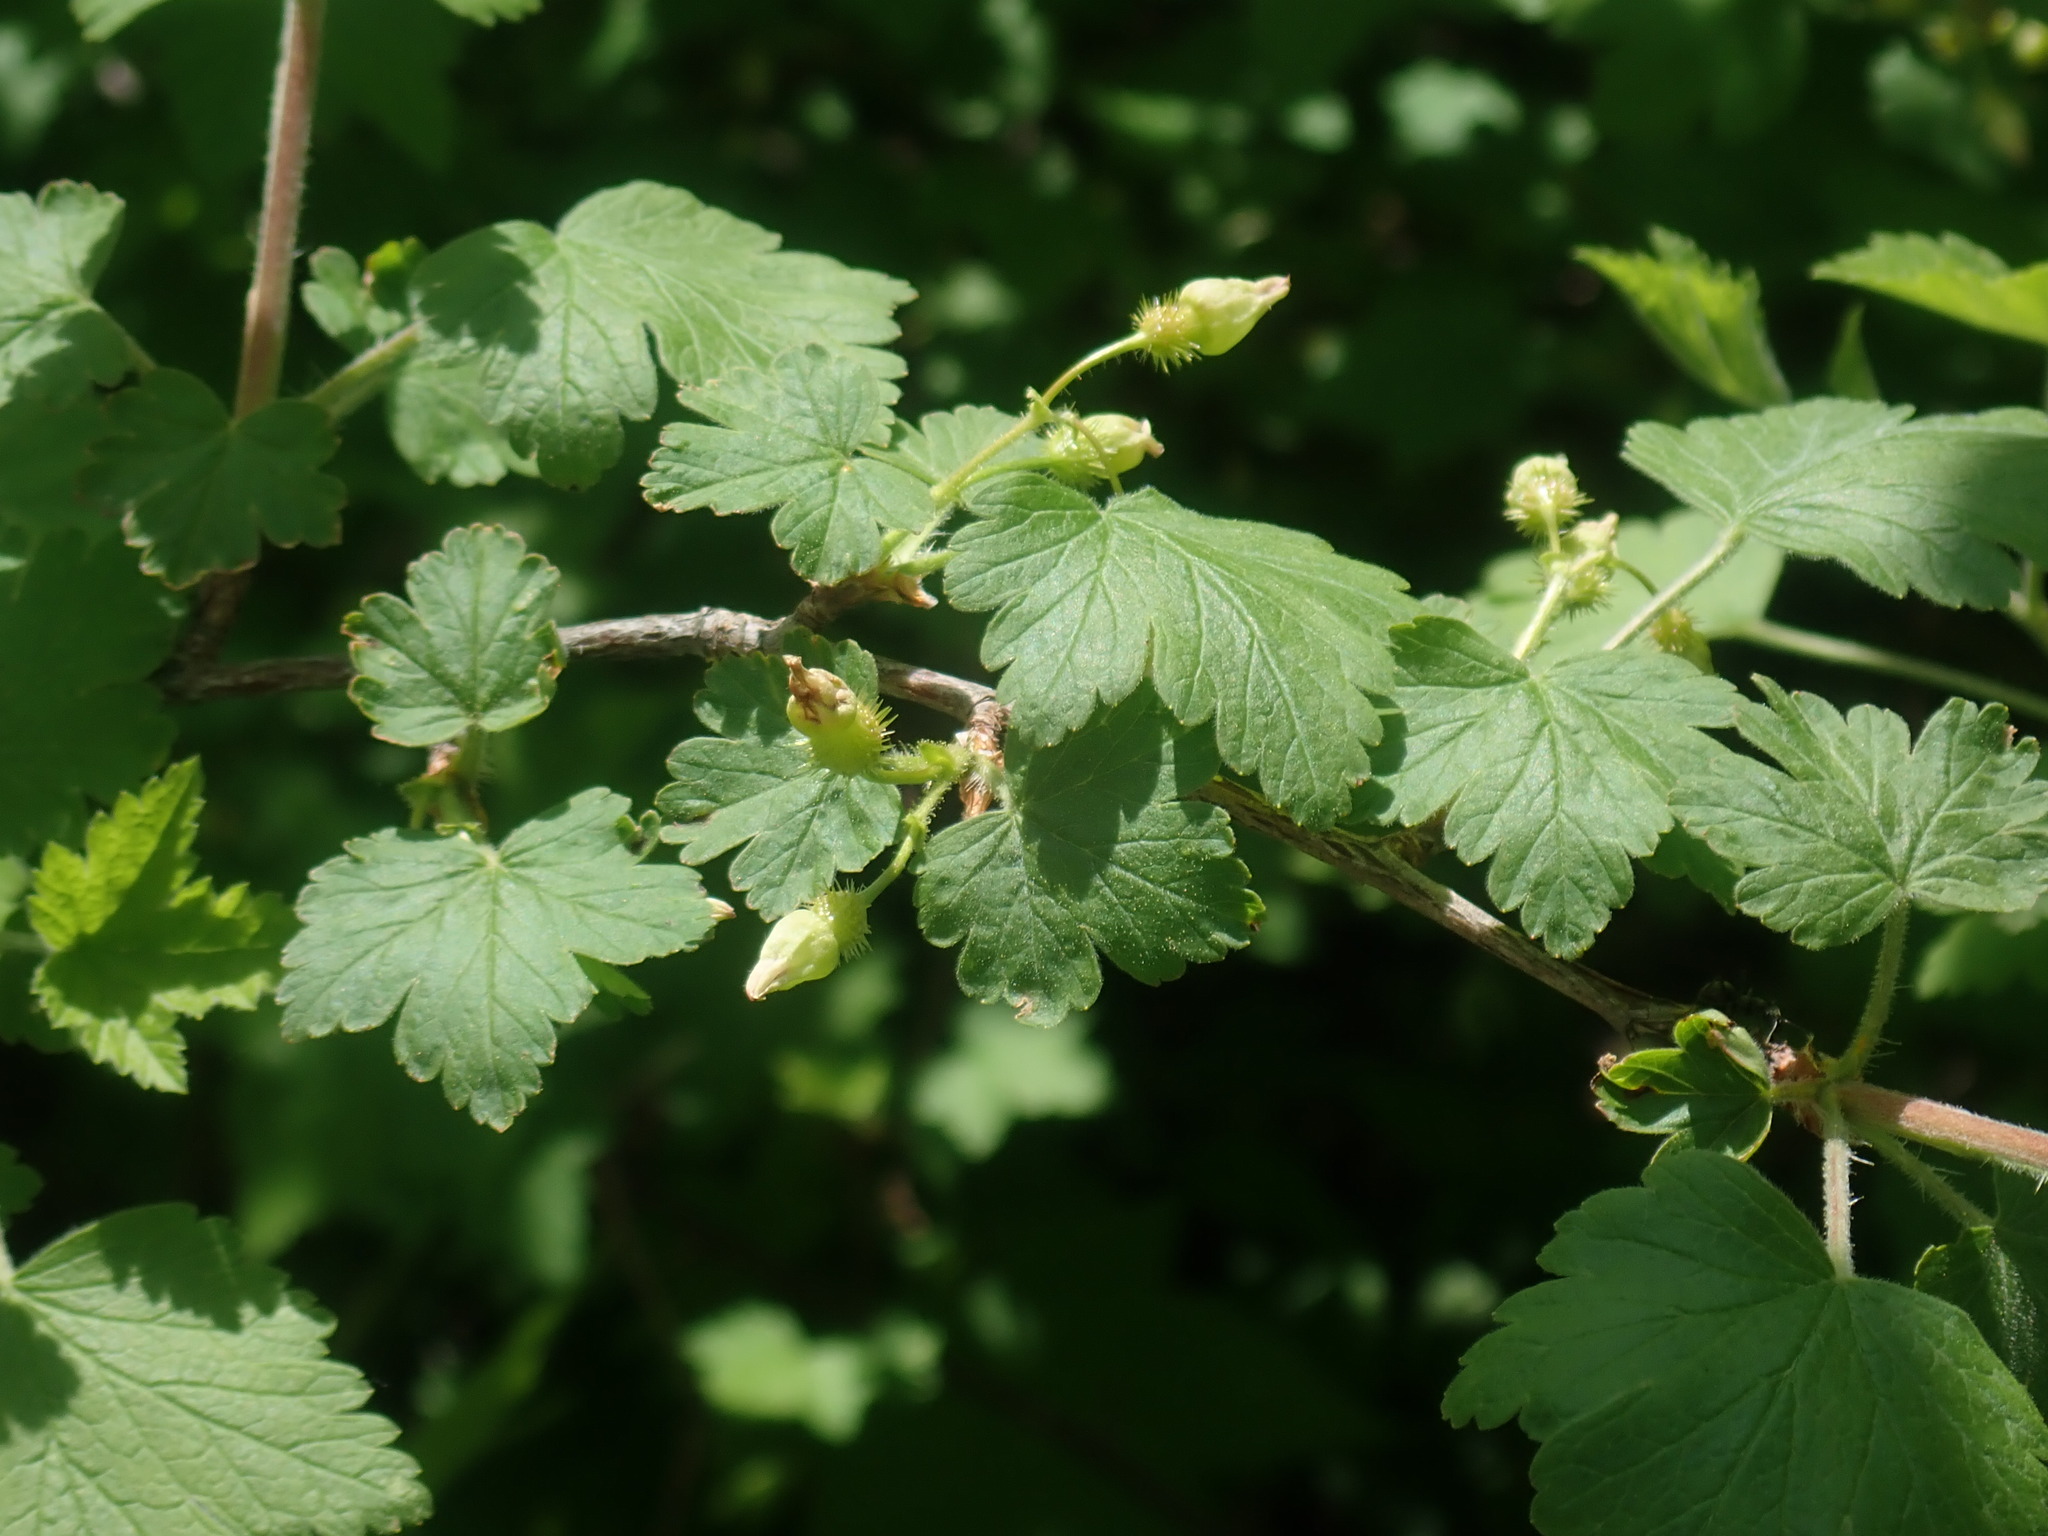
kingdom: Plantae
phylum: Tracheophyta
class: Magnoliopsida
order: Saxifragales
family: Grossulariaceae
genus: Ribes
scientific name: Ribes cynosbati
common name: American gooseberry
